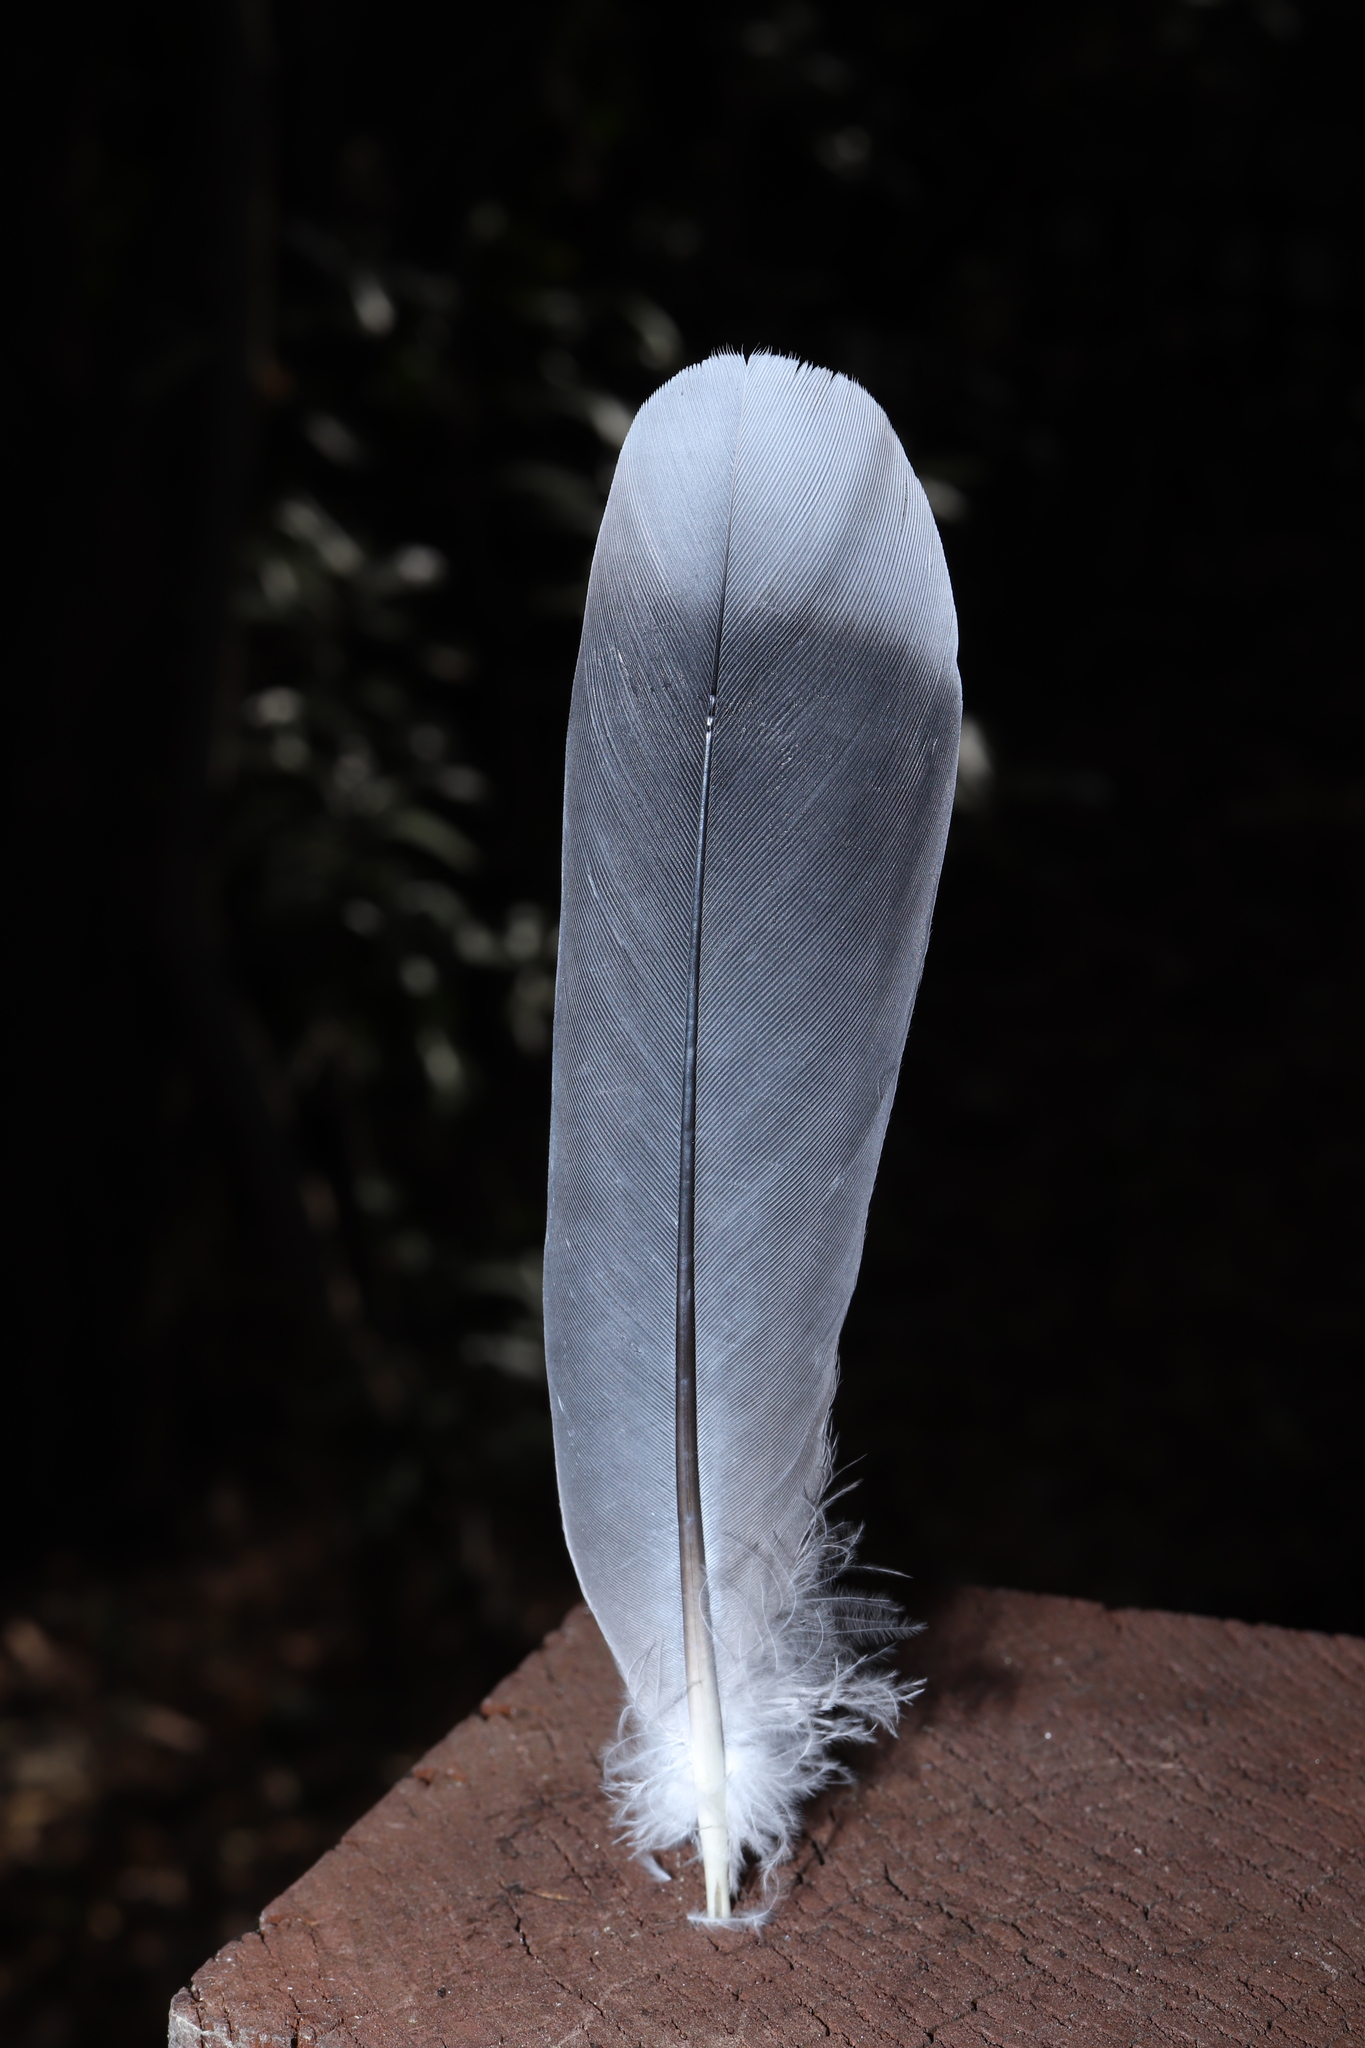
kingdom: Animalia
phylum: Chordata
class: Aves
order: Columbiformes
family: Columbidae
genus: Streptopelia
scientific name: Streptopelia orientalis
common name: Oriental turtle dove
